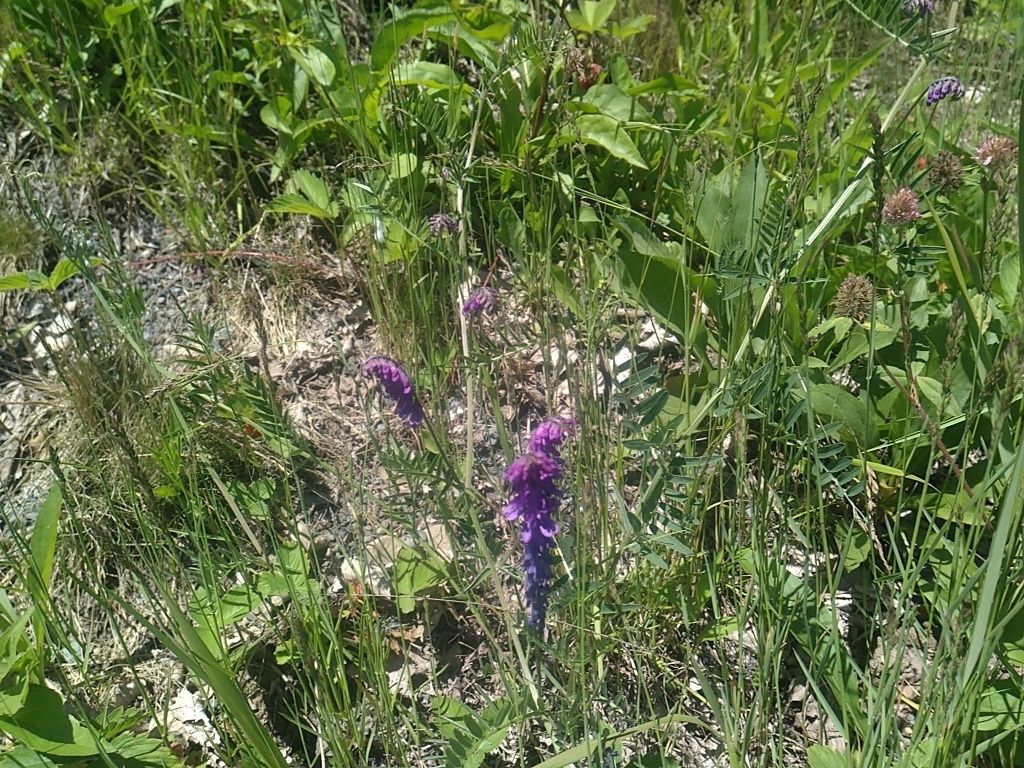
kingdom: Plantae
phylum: Tracheophyta
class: Magnoliopsida
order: Fabales
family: Fabaceae
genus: Vicia
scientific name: Vicia cracca
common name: Bird vetch
